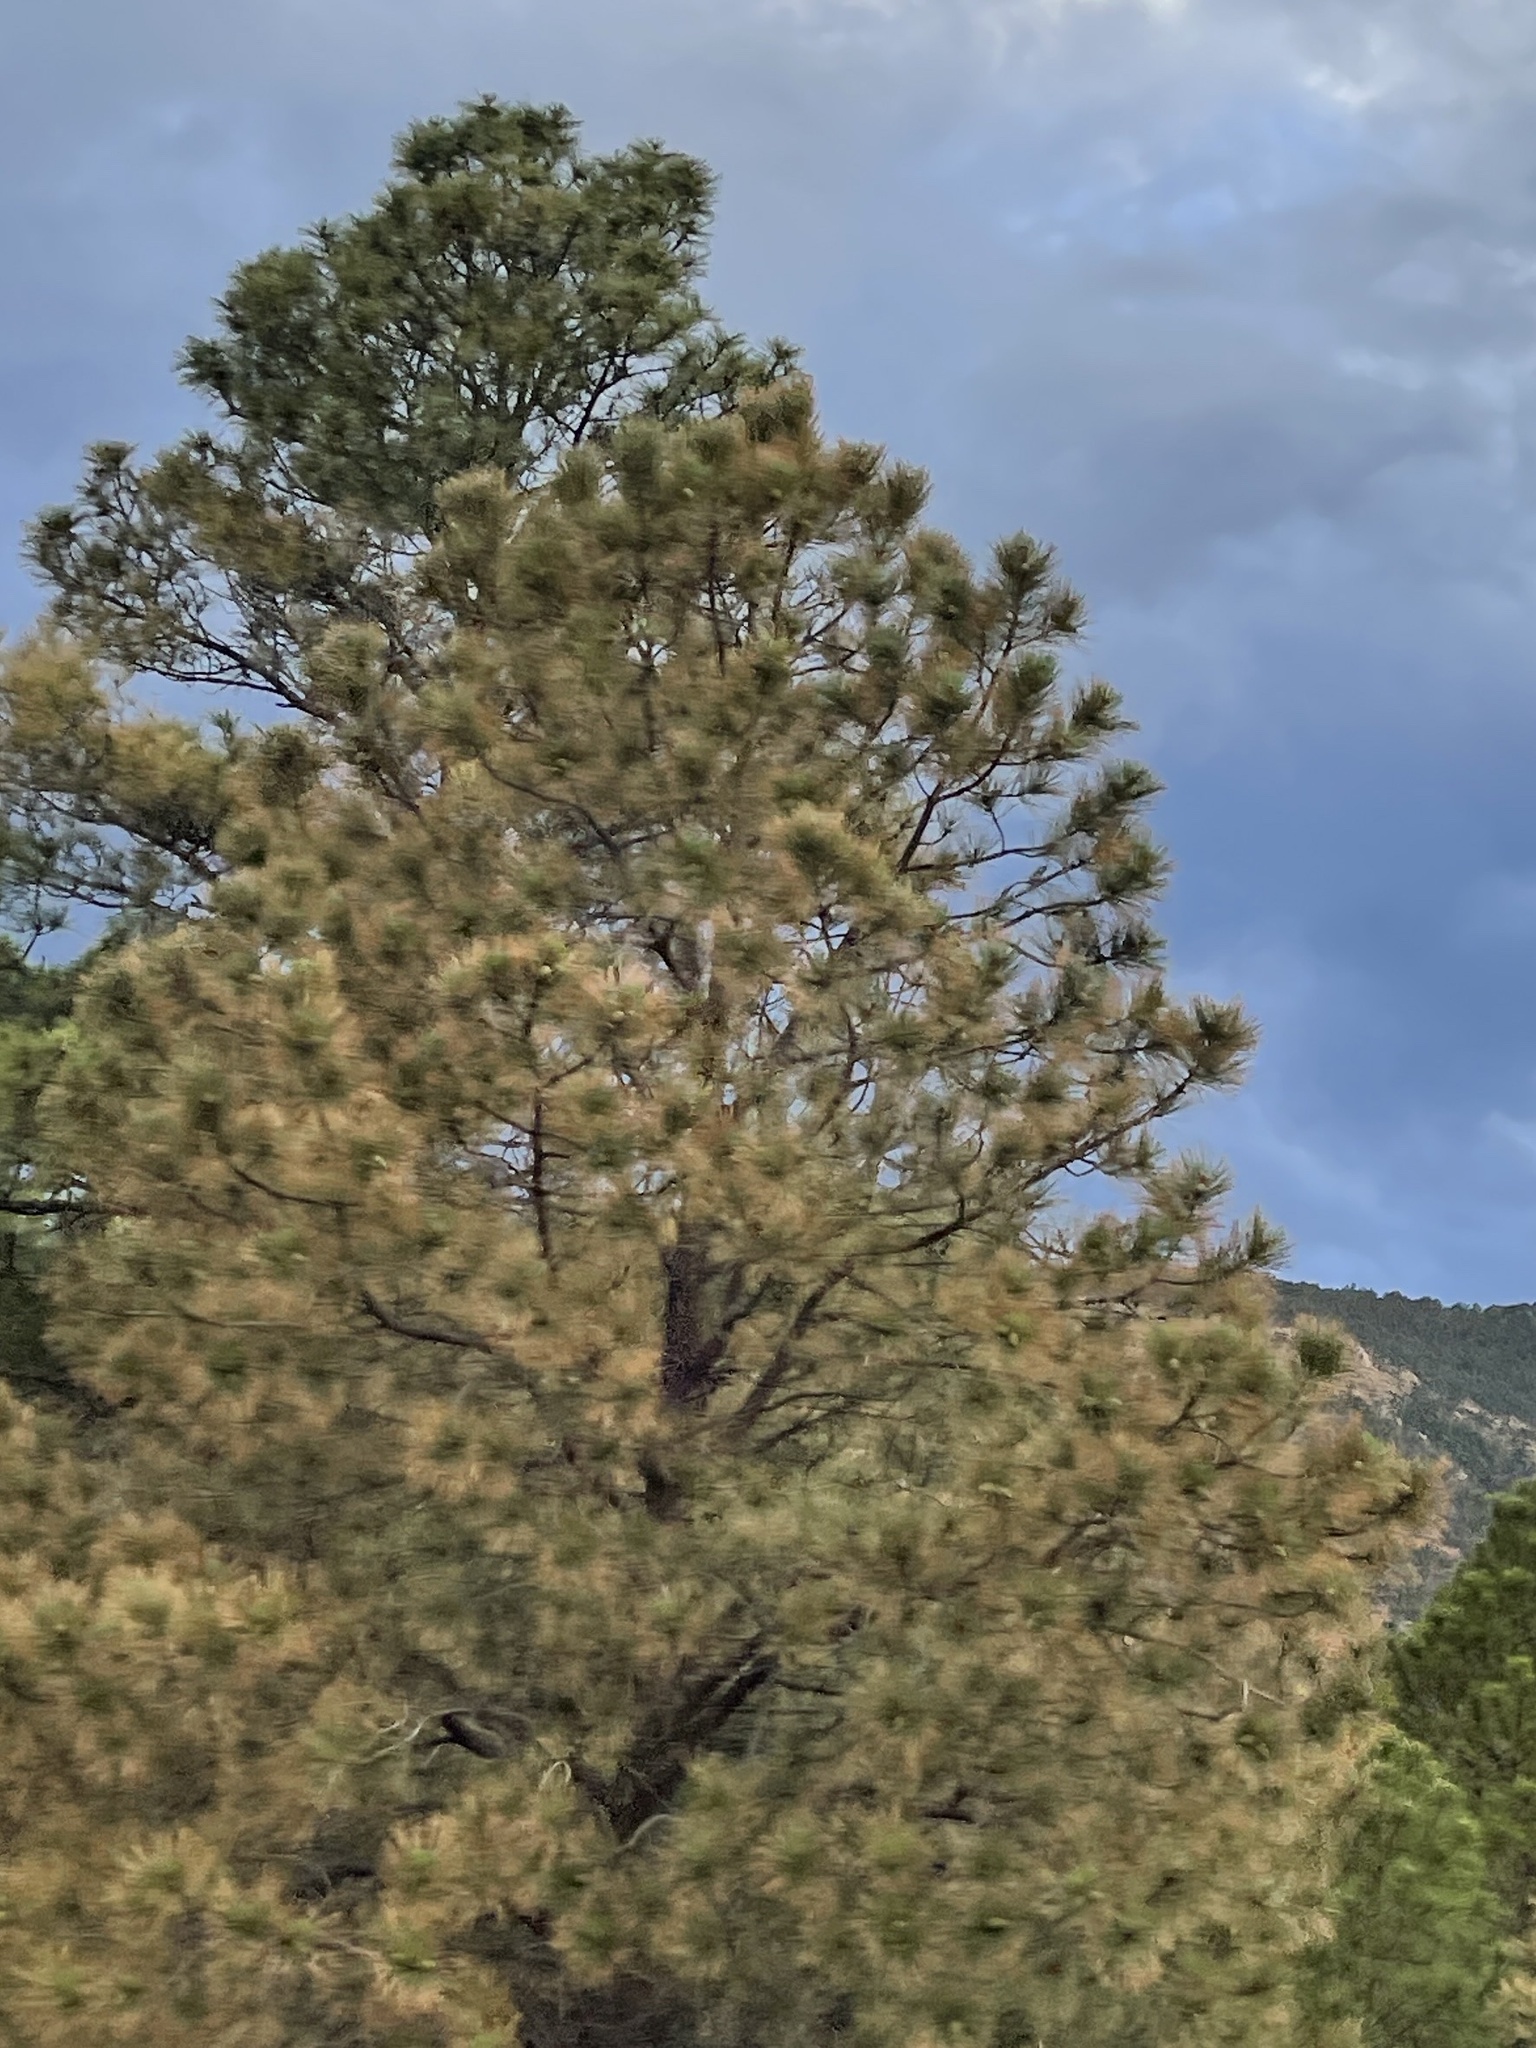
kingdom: Plantae
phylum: Tracheophyta
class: Pinopsida
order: Pinales
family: Pinaceae
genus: Pinus
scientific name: Pinus ponderosa
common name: Western yellow-pine
